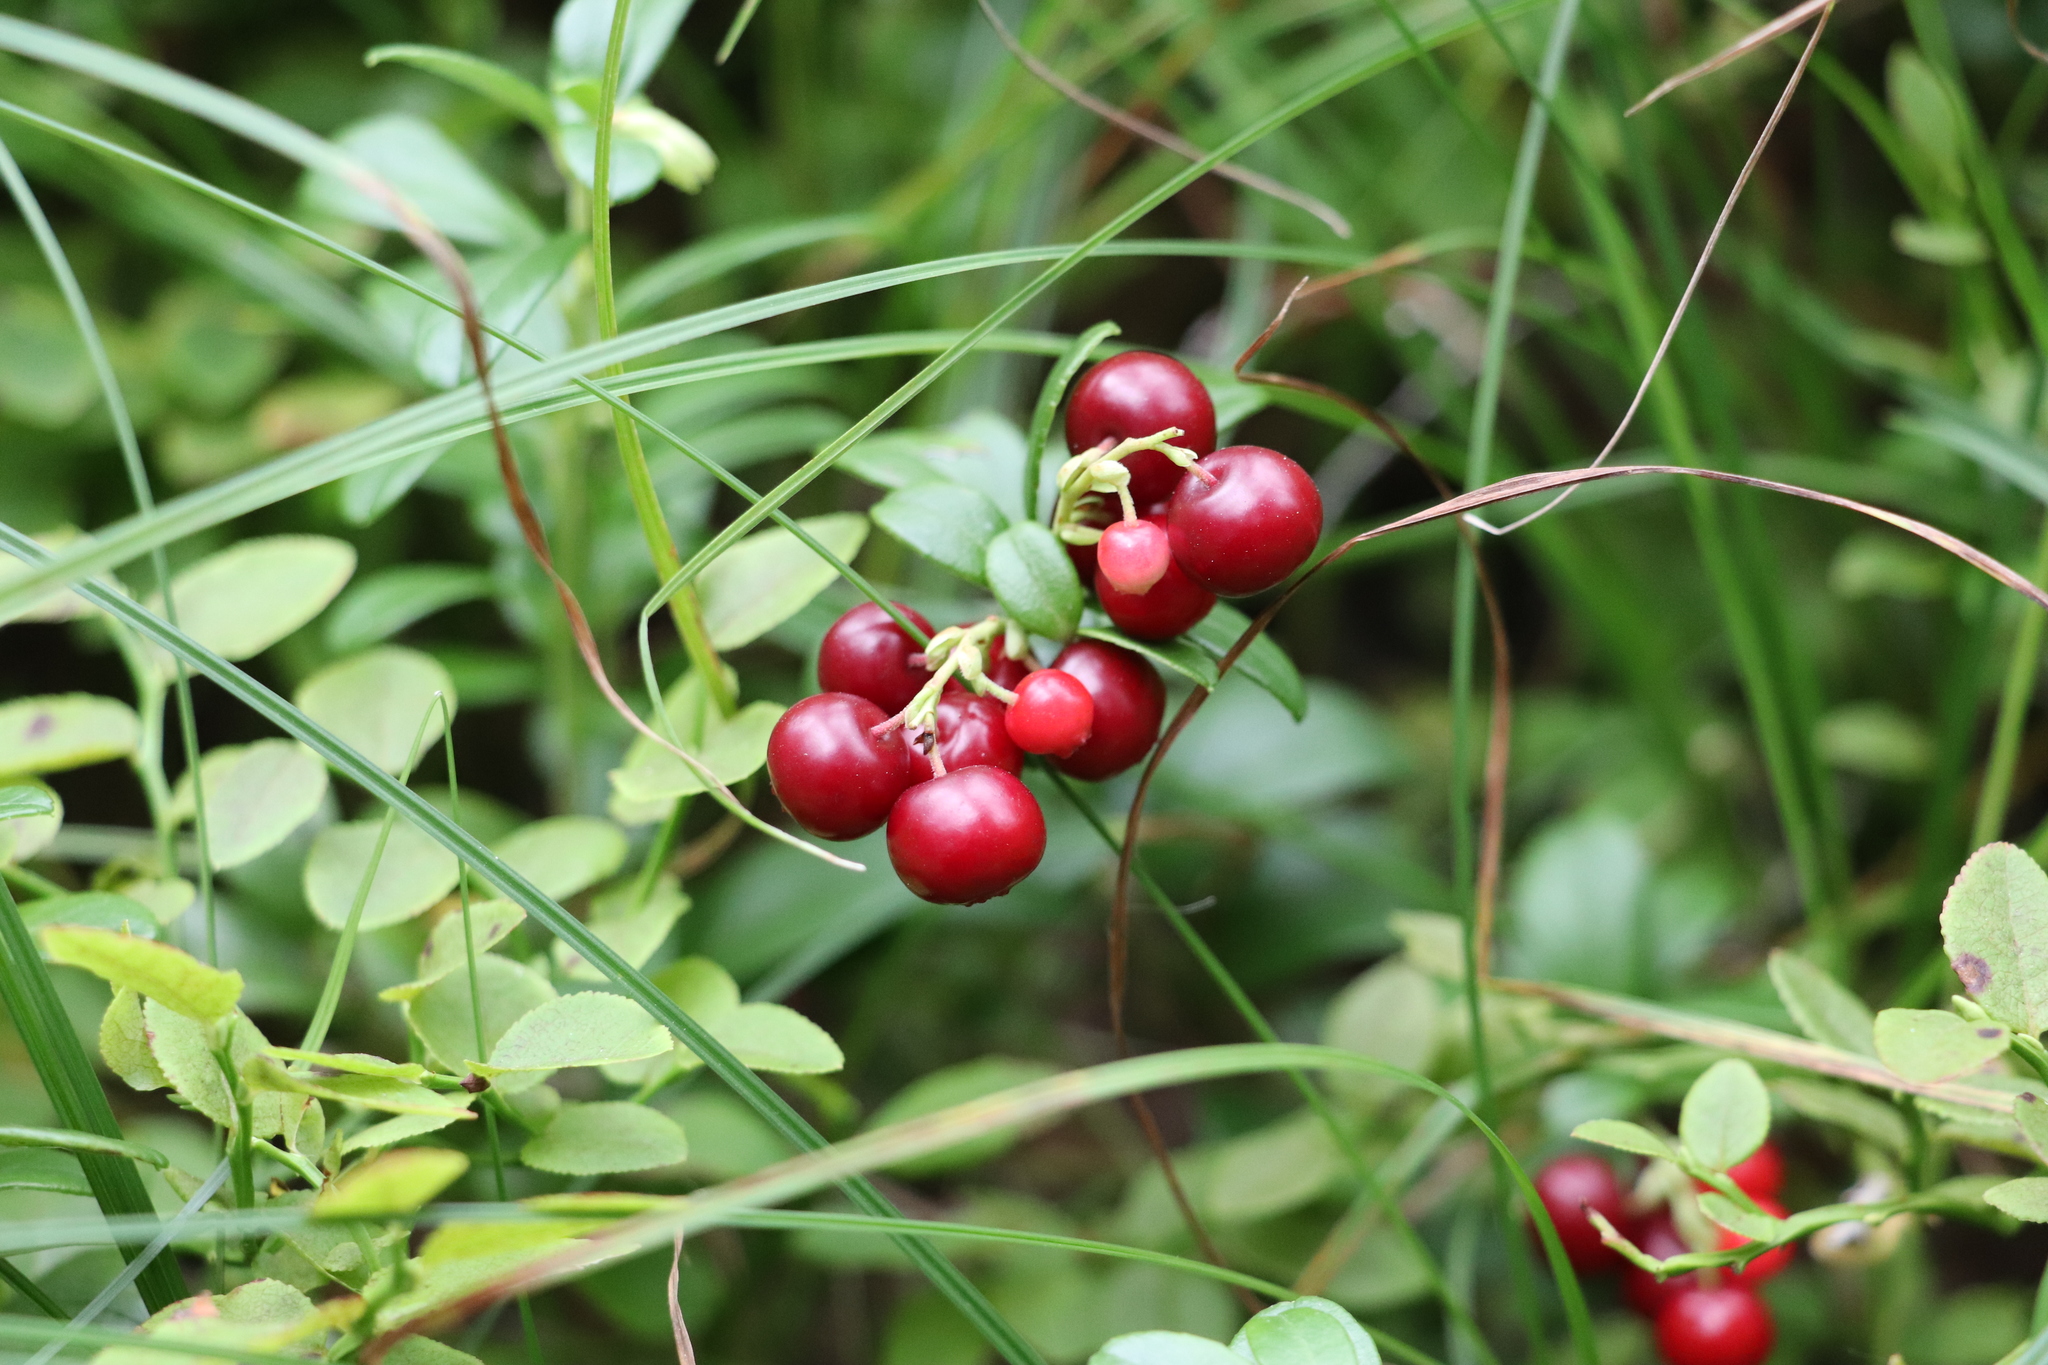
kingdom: Plantae
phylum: Tracheophyta
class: Magnoliopsida
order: Ericales
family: Ericaceae
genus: Vaccinium
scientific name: Vaccinium vitis-idaea
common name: Cowberry
